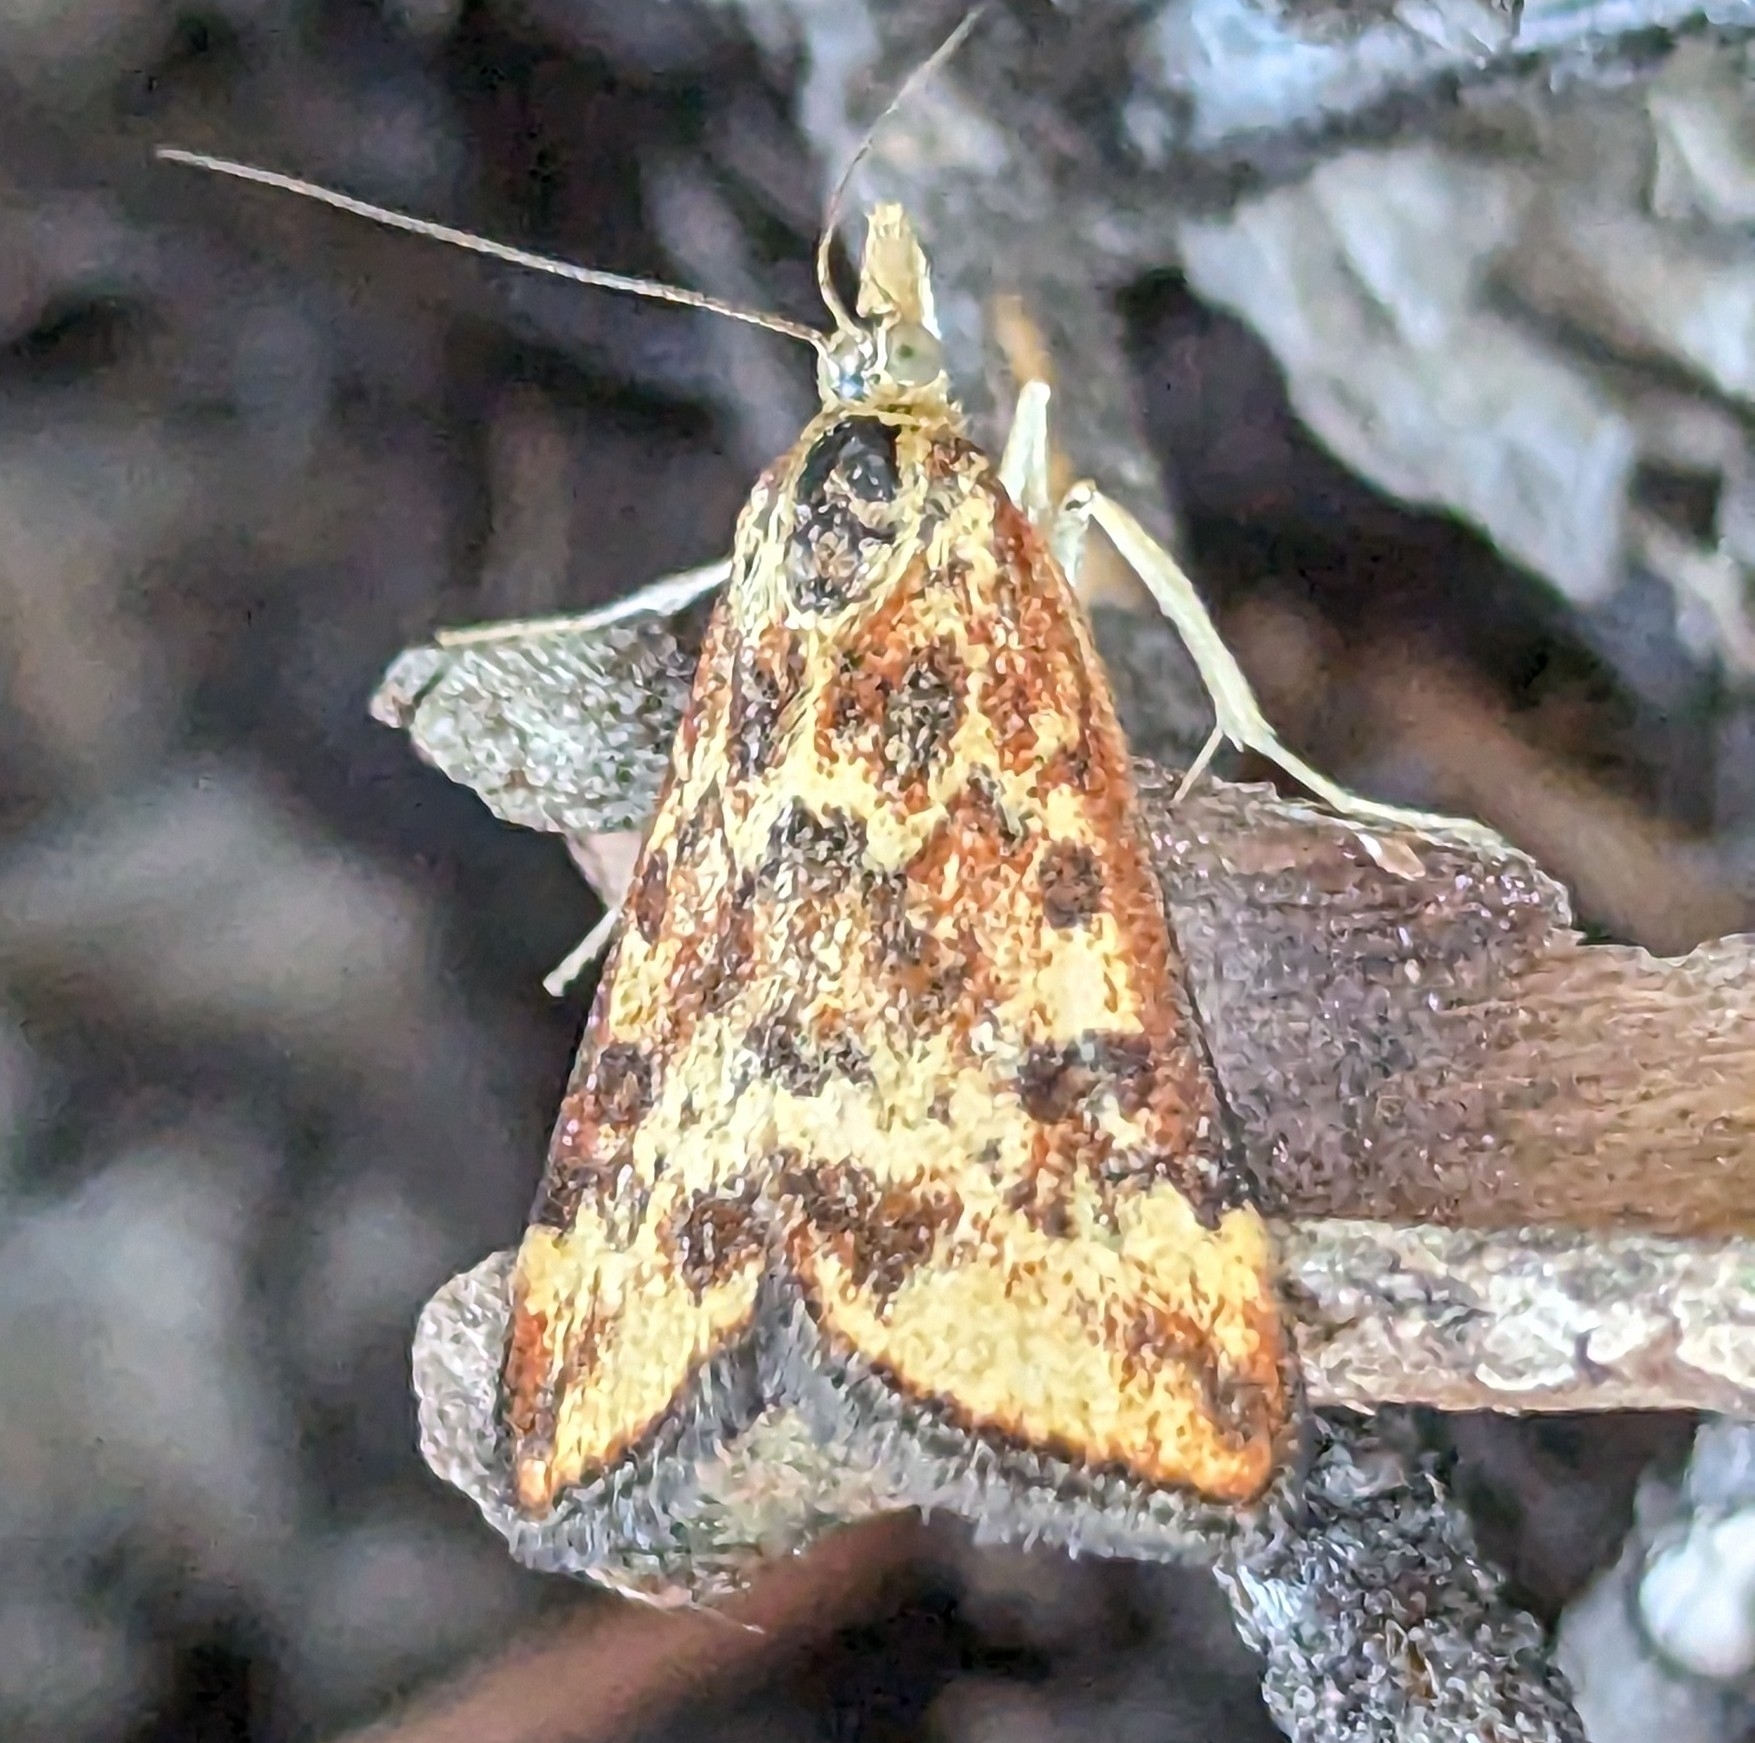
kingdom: Animalia
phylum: Arthropoda
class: Insecta
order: Lepidoptera
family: Crambidae
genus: Pyrausta
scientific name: Pyrausta subsequalis
